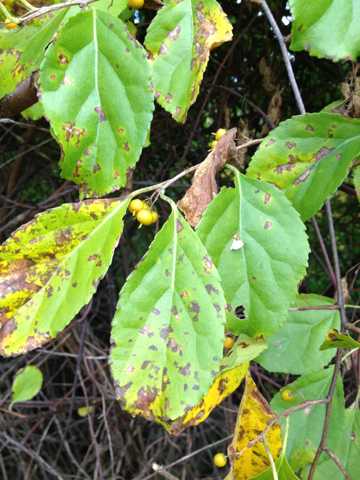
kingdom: Plantae
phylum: Tracheophyta
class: Magnoliopsida
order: Celastrales
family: Celastraceae
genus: Celastrus
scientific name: Celastrus orbiculatus
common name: Oriental bittersweet
